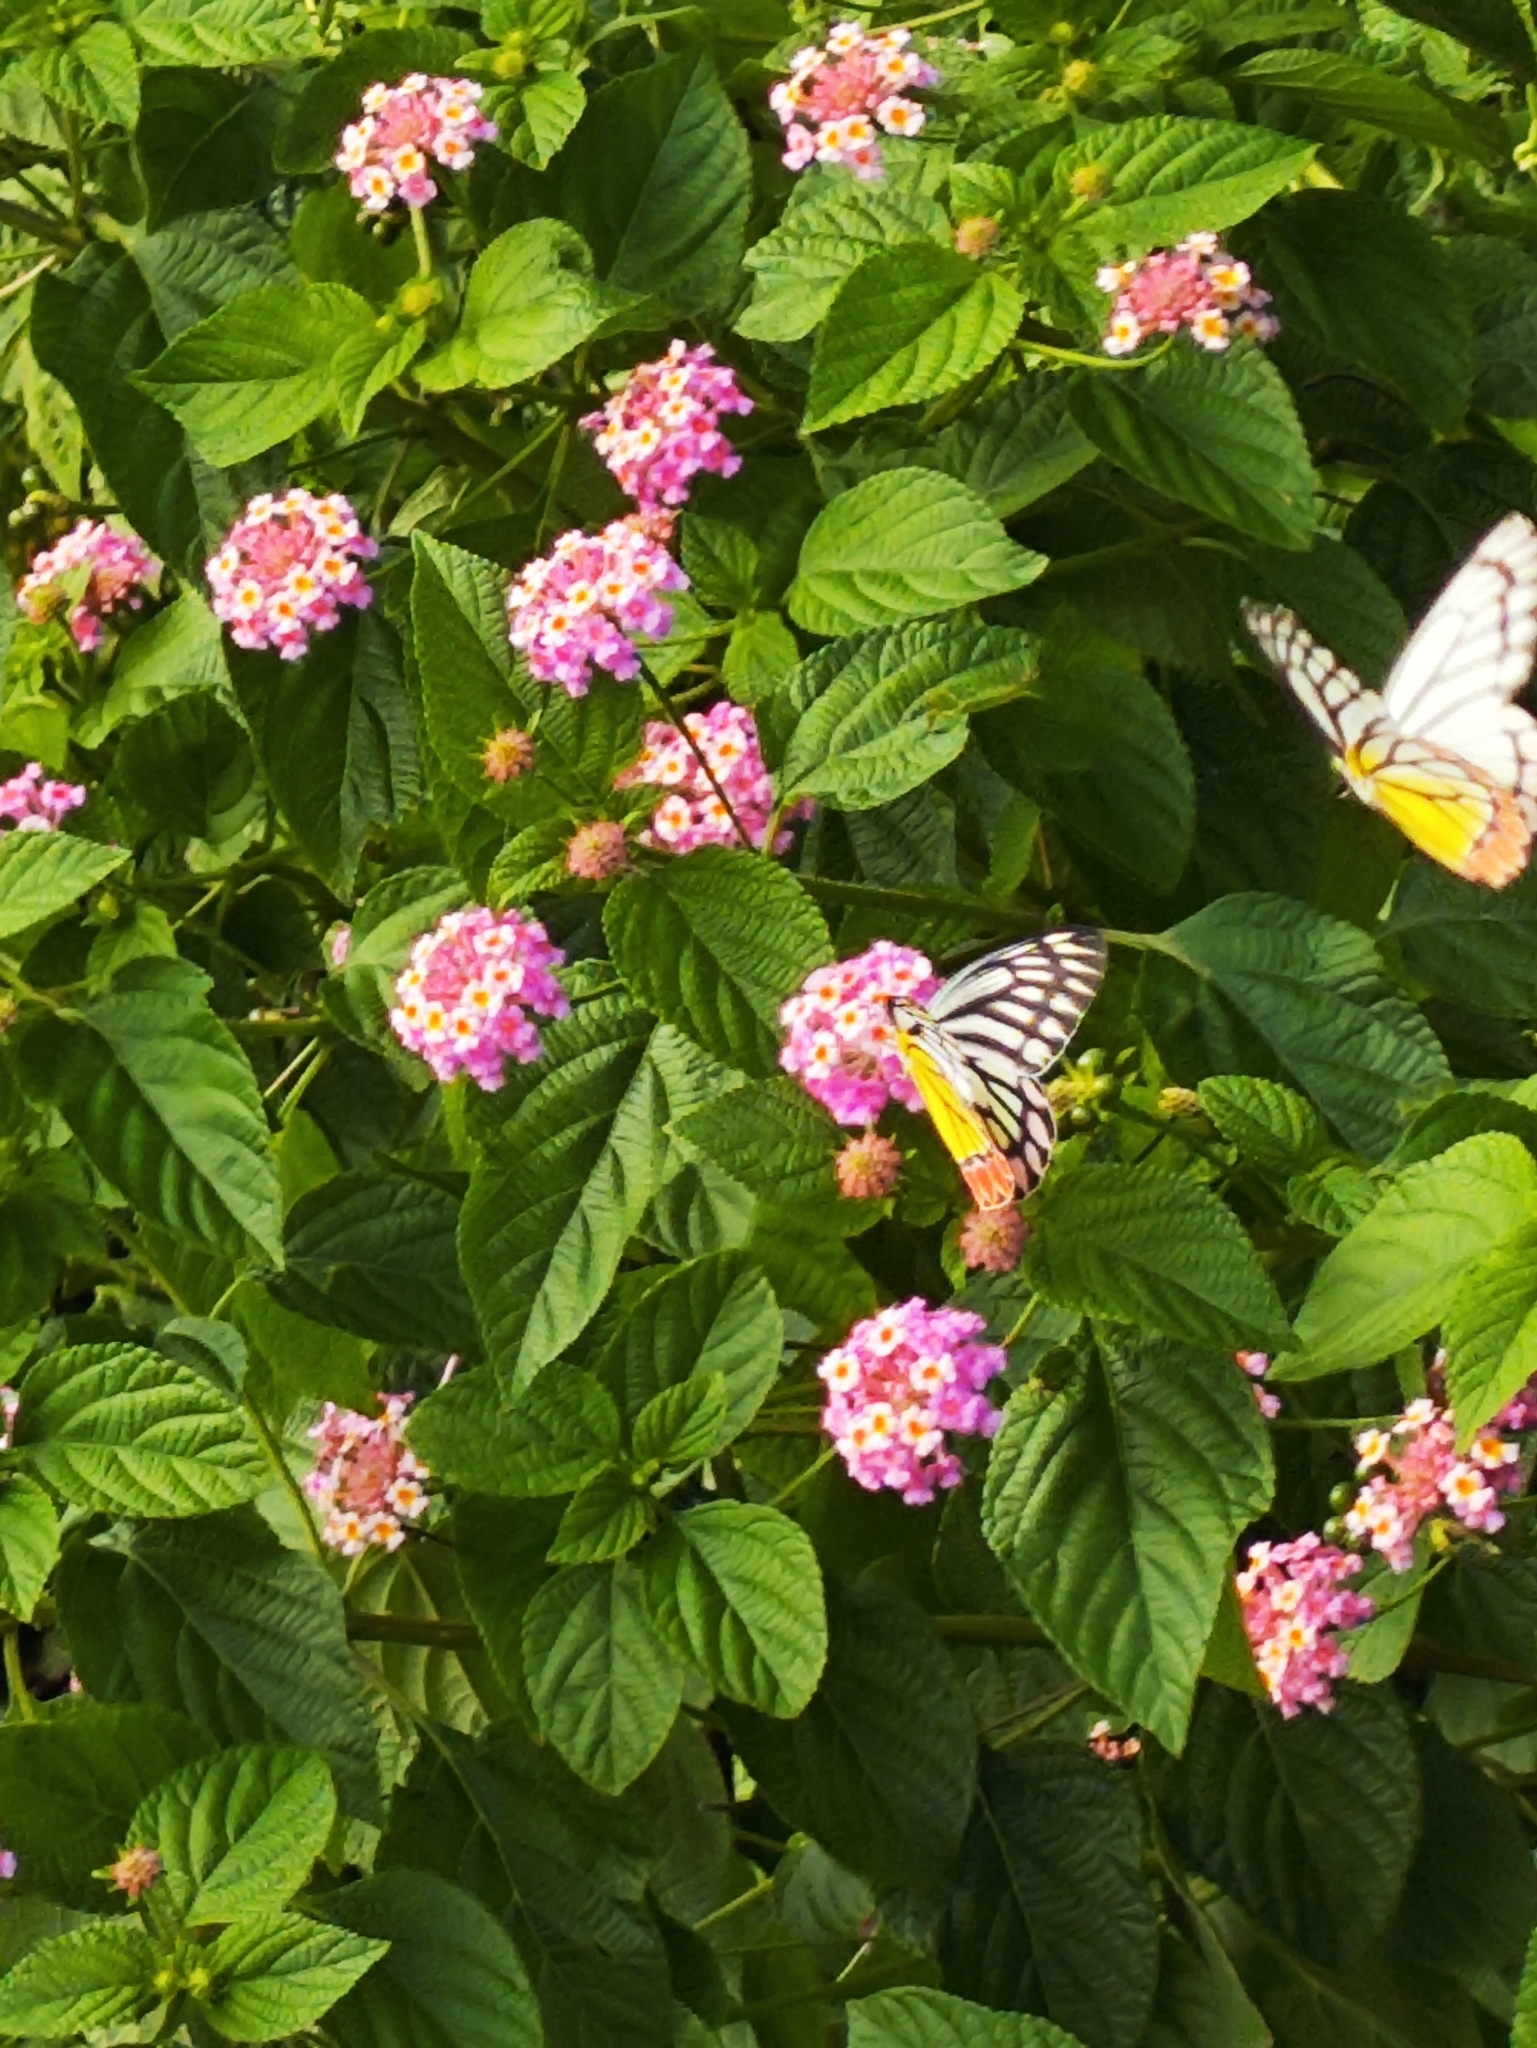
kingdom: Animalia
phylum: Arthropoda
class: Insecta
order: Lepidoptera
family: Pieridae
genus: Delias
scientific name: Delias eucharis
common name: Common jezebel
